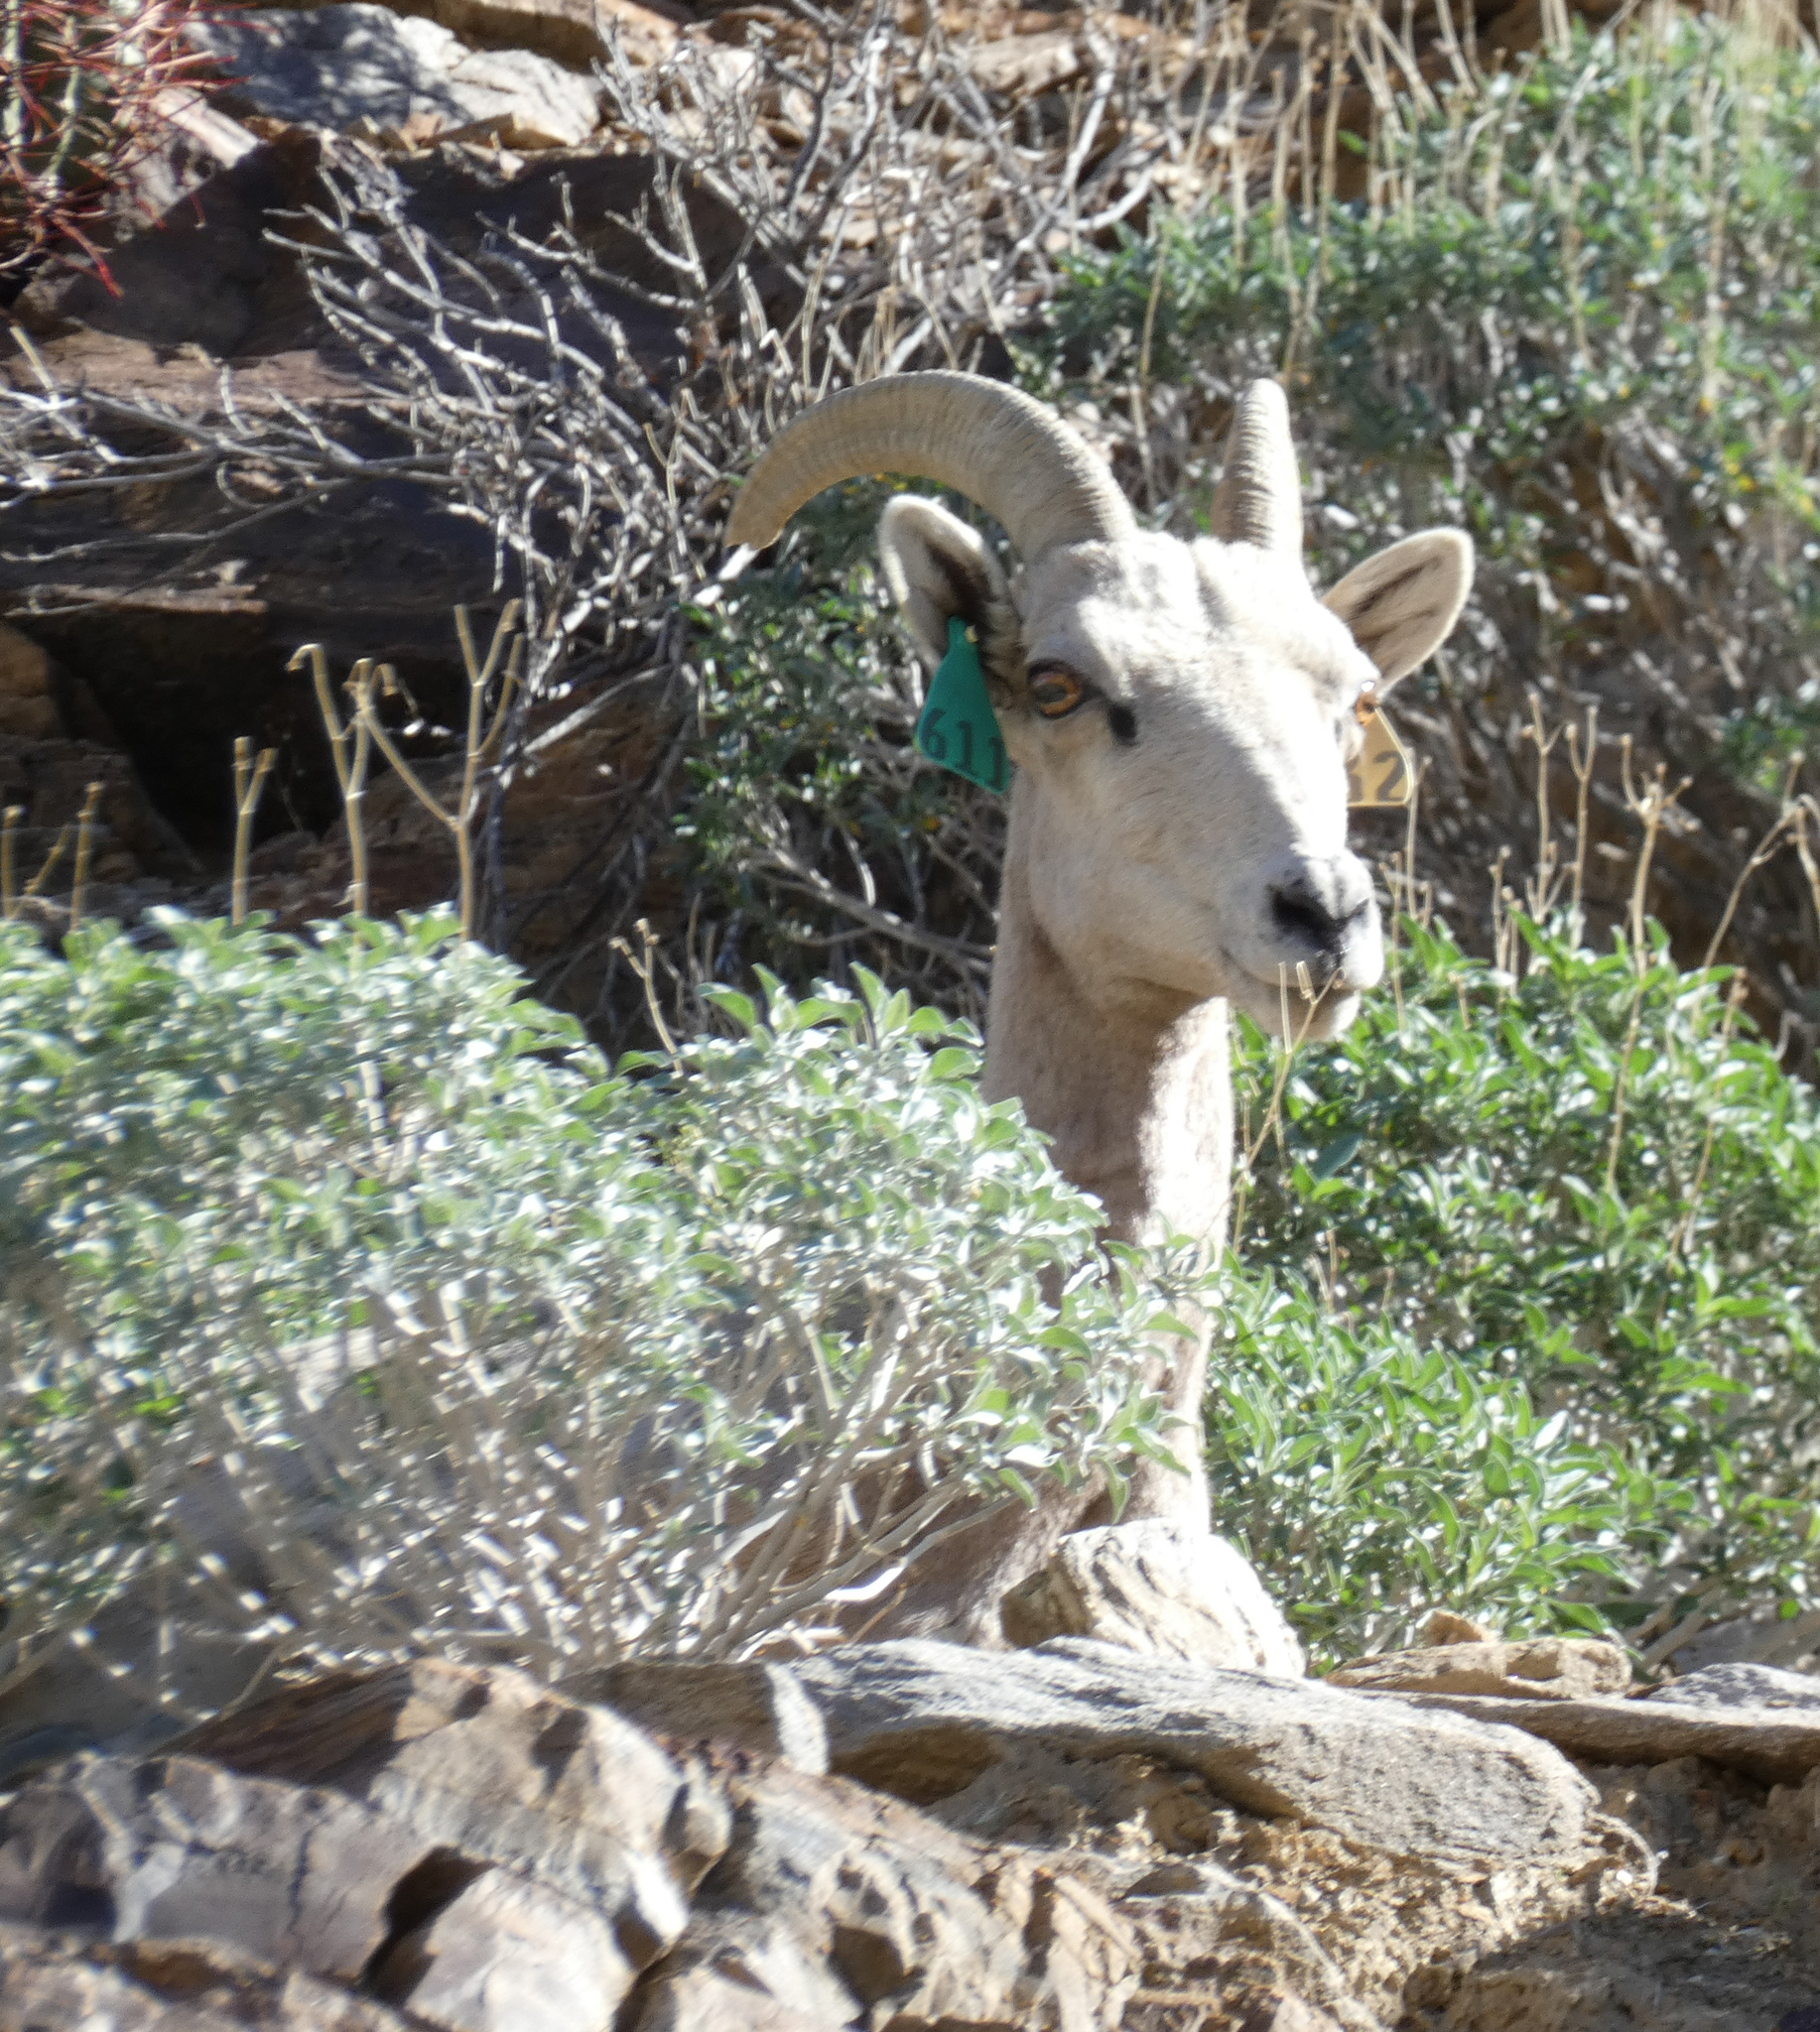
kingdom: Animalia
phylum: Chordata
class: Mammalia
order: Artiodactyla
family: Bovidae
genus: Ovis
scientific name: Ovis canadensis
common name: Bighorn sheep
